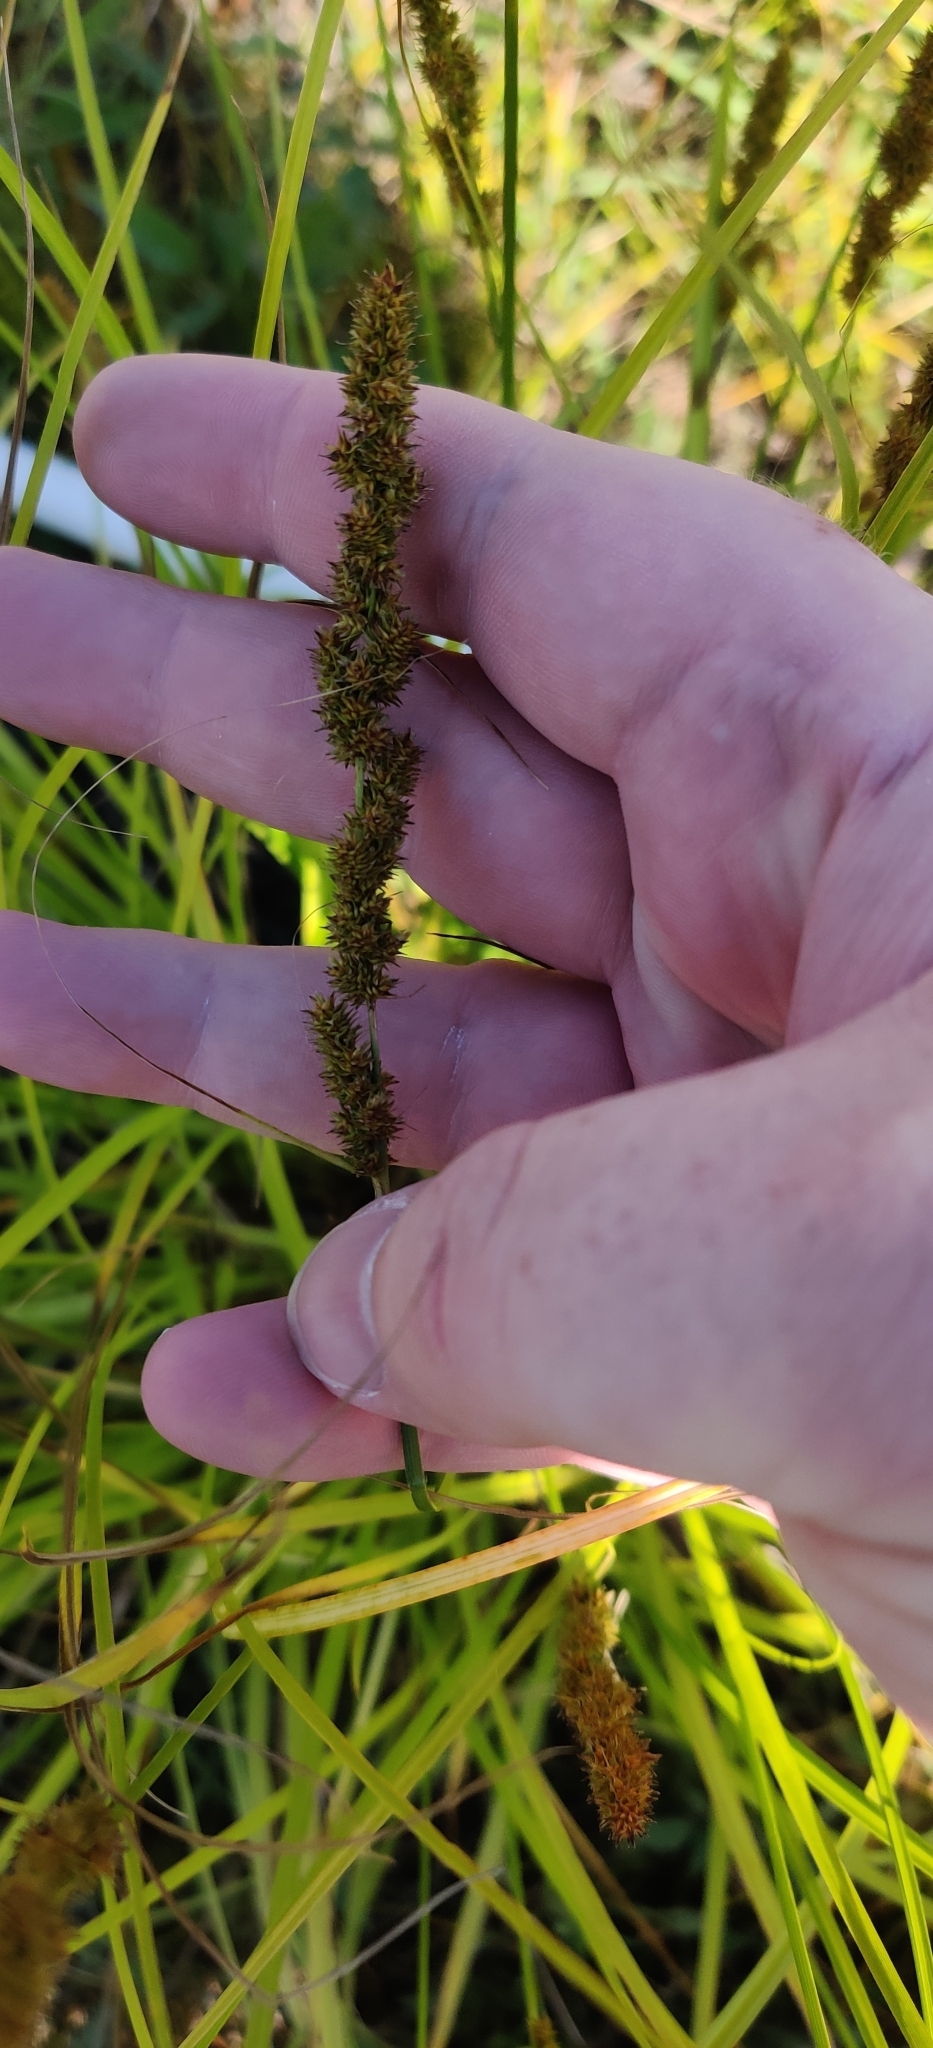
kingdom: Plantae
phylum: Tracheophyta
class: Liliopsida
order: Poales
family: Cyperaceae
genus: Carex
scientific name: Carex vulpinoidea
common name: American fox-sedge
